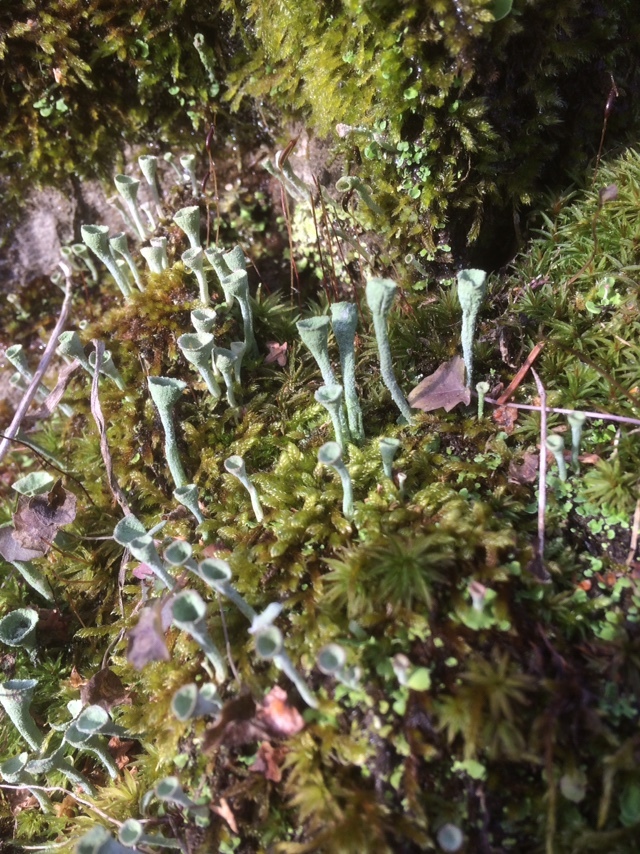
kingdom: Fungi
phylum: Ascomycota
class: Lecanoromycetes
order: Lecanorales
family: Cladoniaceae
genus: Cladonia
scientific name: Cladonia fimbriata
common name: Powdered trumpet lichen
